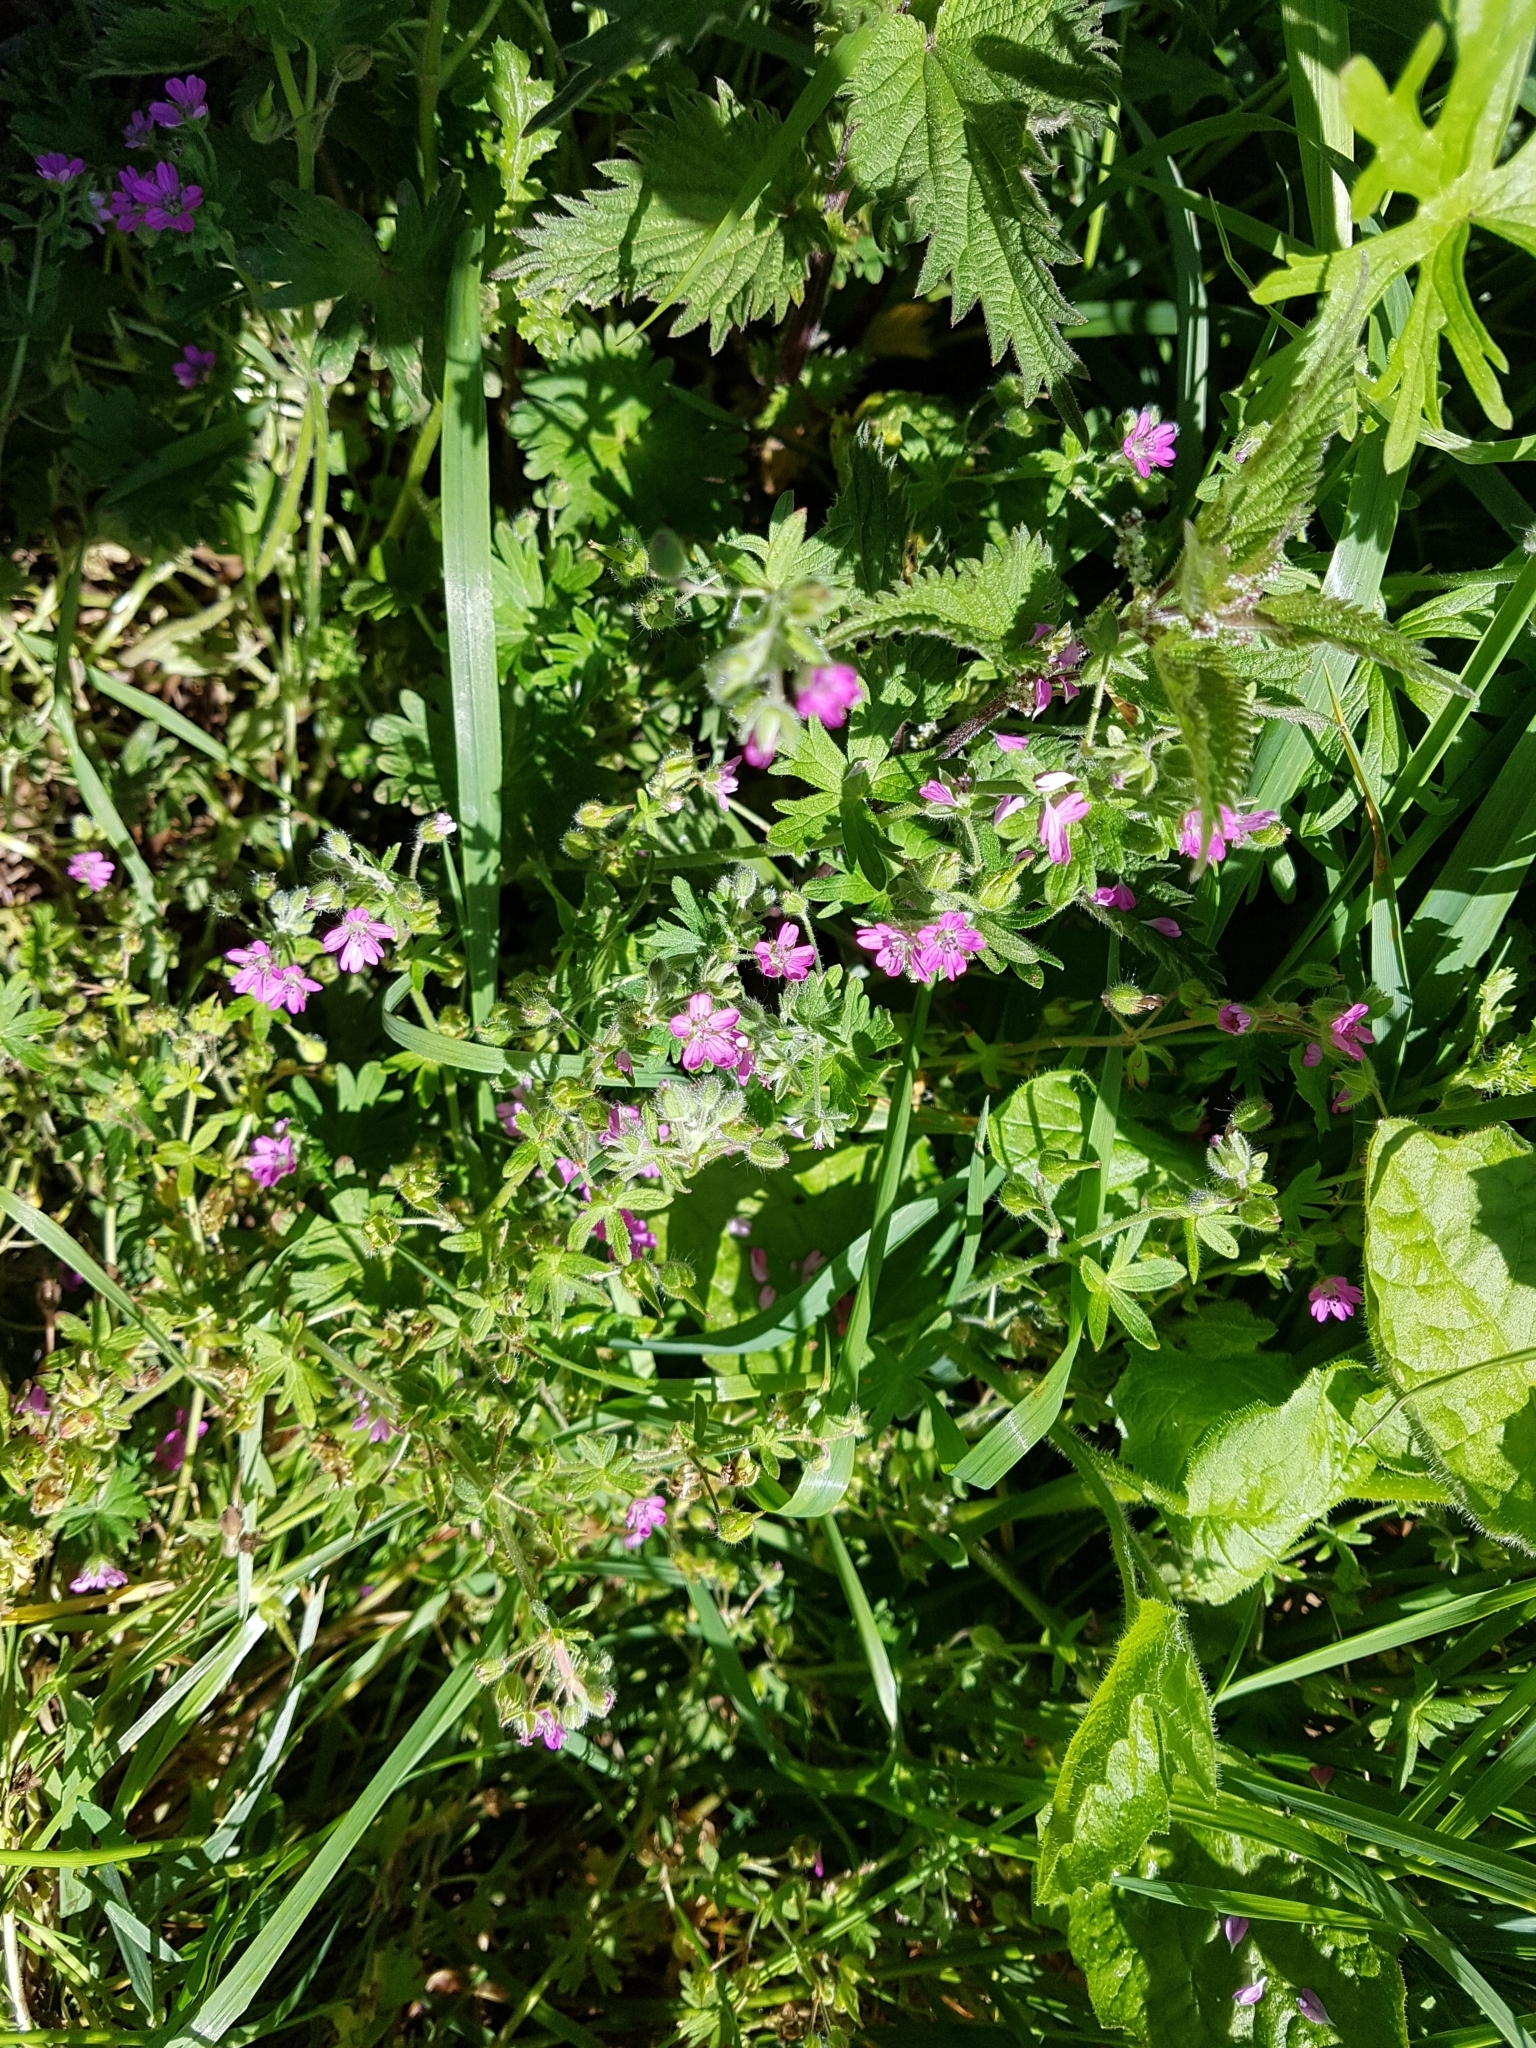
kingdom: Plantae
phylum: Tracheophyta
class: Magnoliopsida
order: Geraniales
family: Geraniaceae
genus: Geranium
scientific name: Geranium molle
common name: Dove's-foot crane's-bill
